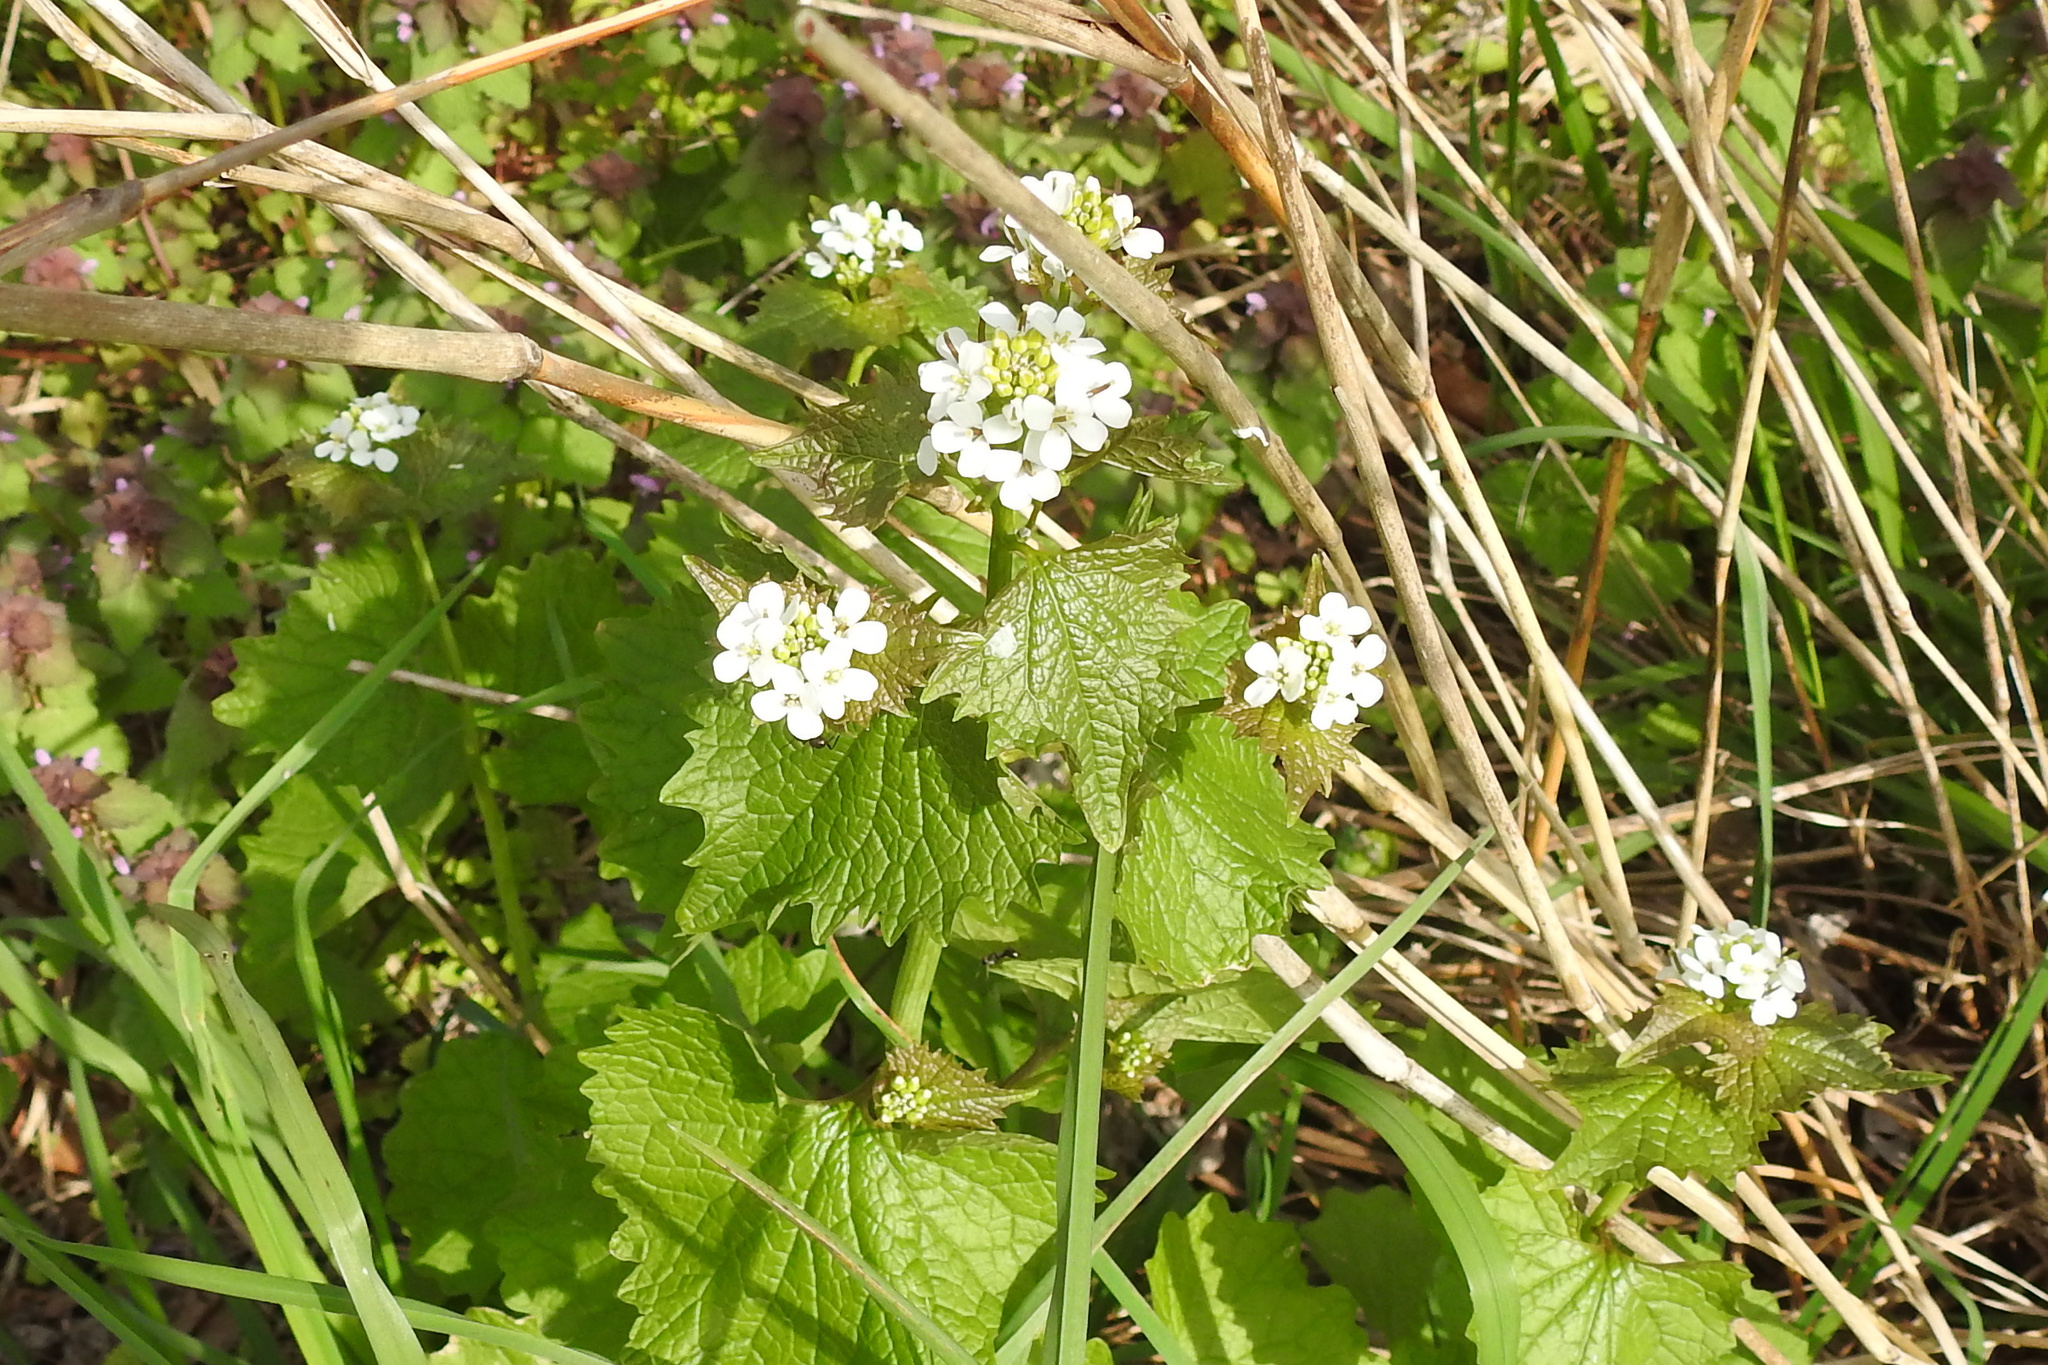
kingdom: Plantae
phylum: Tracheophyta
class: Magnoliopsida
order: Brassicales
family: Brassicaceae
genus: Alliaria
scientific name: Alliaria petiolata
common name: Garlic mustard
